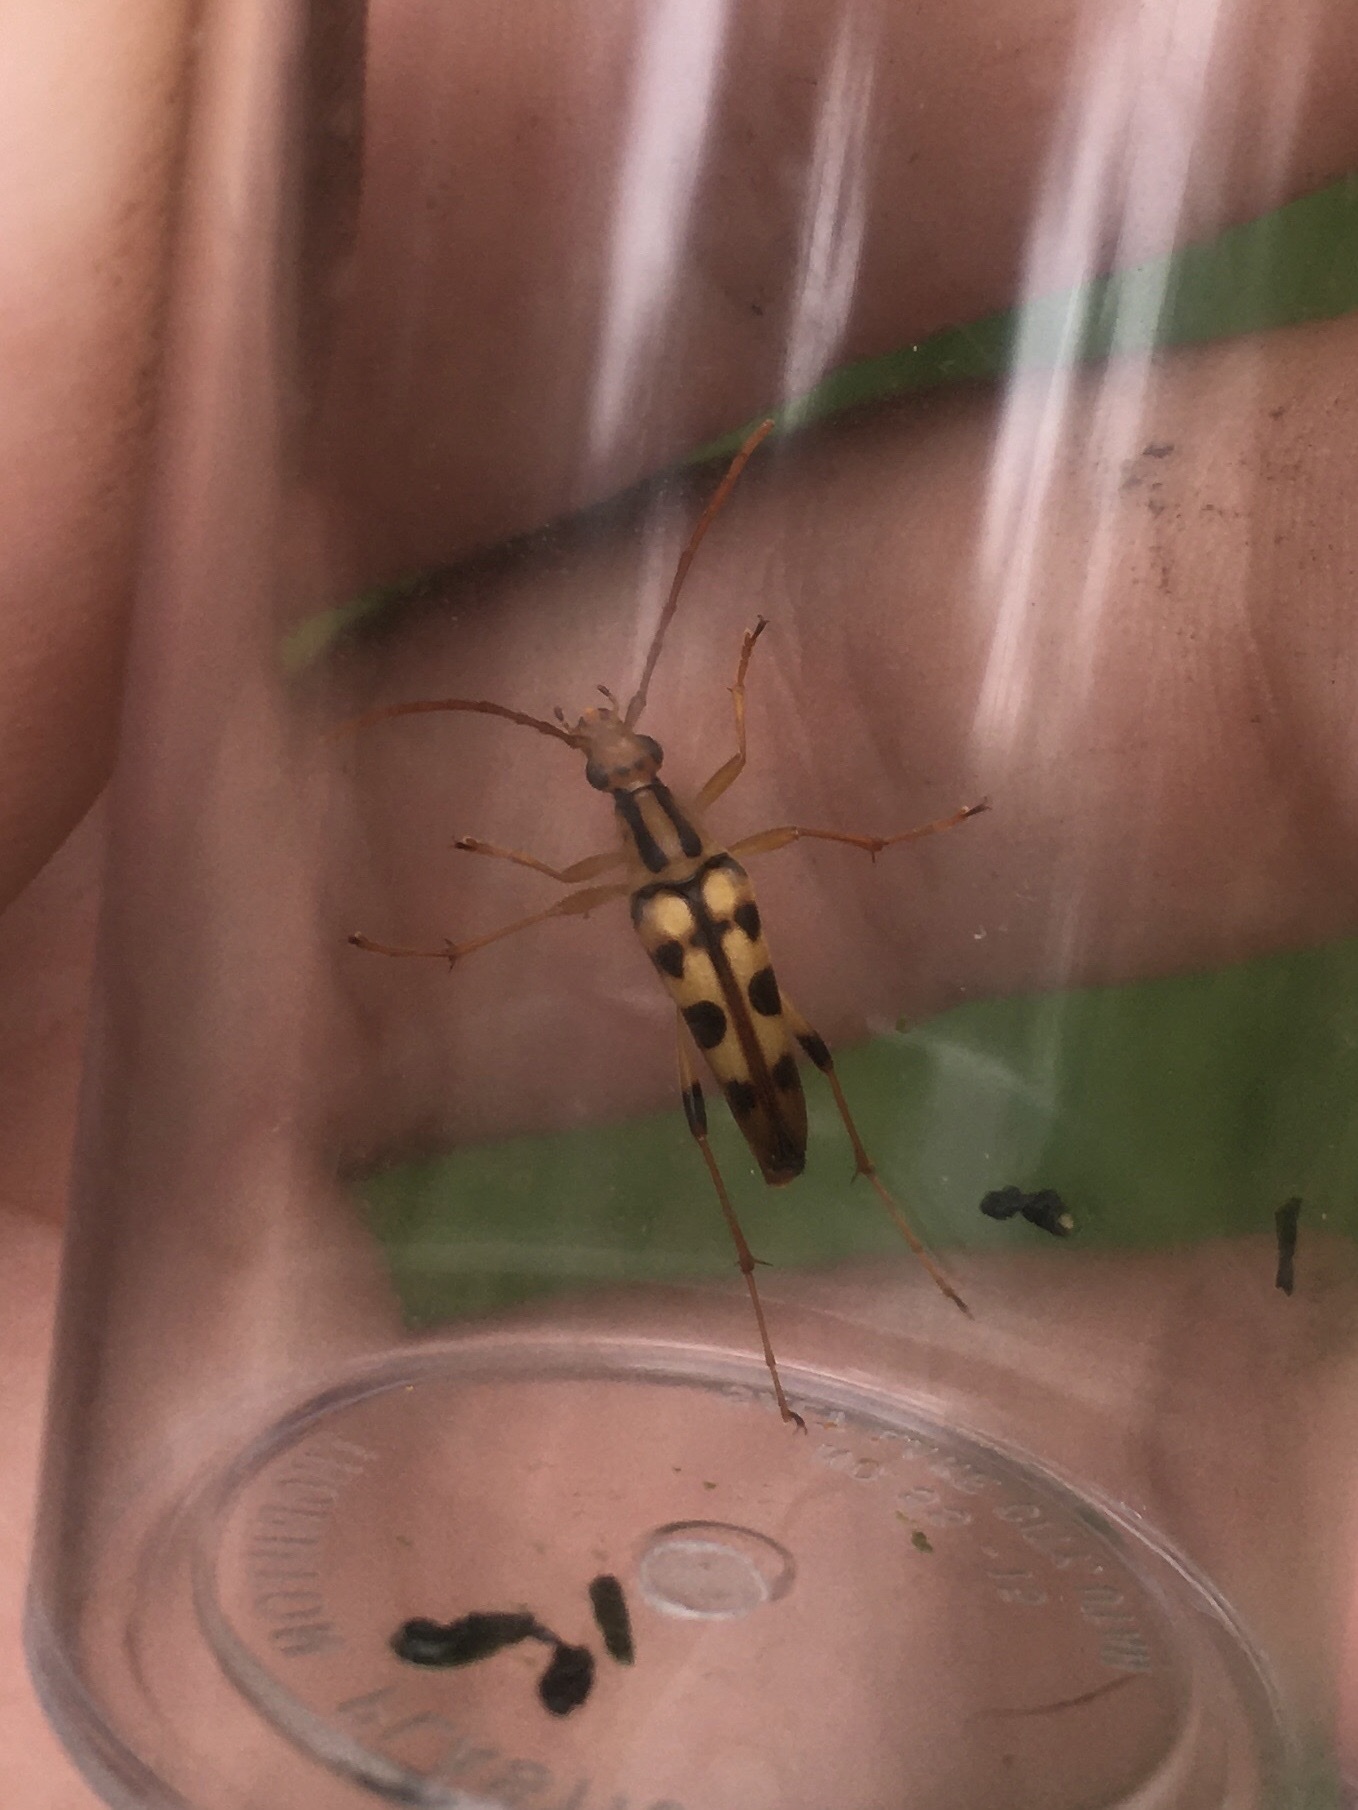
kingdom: Animalia
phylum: Arthropoda
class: Insecta
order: Coleoptera
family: Cerambycidae
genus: Strangalia
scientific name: Strangalia luteicornis
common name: Yellow-horned flower longhorn beetle
